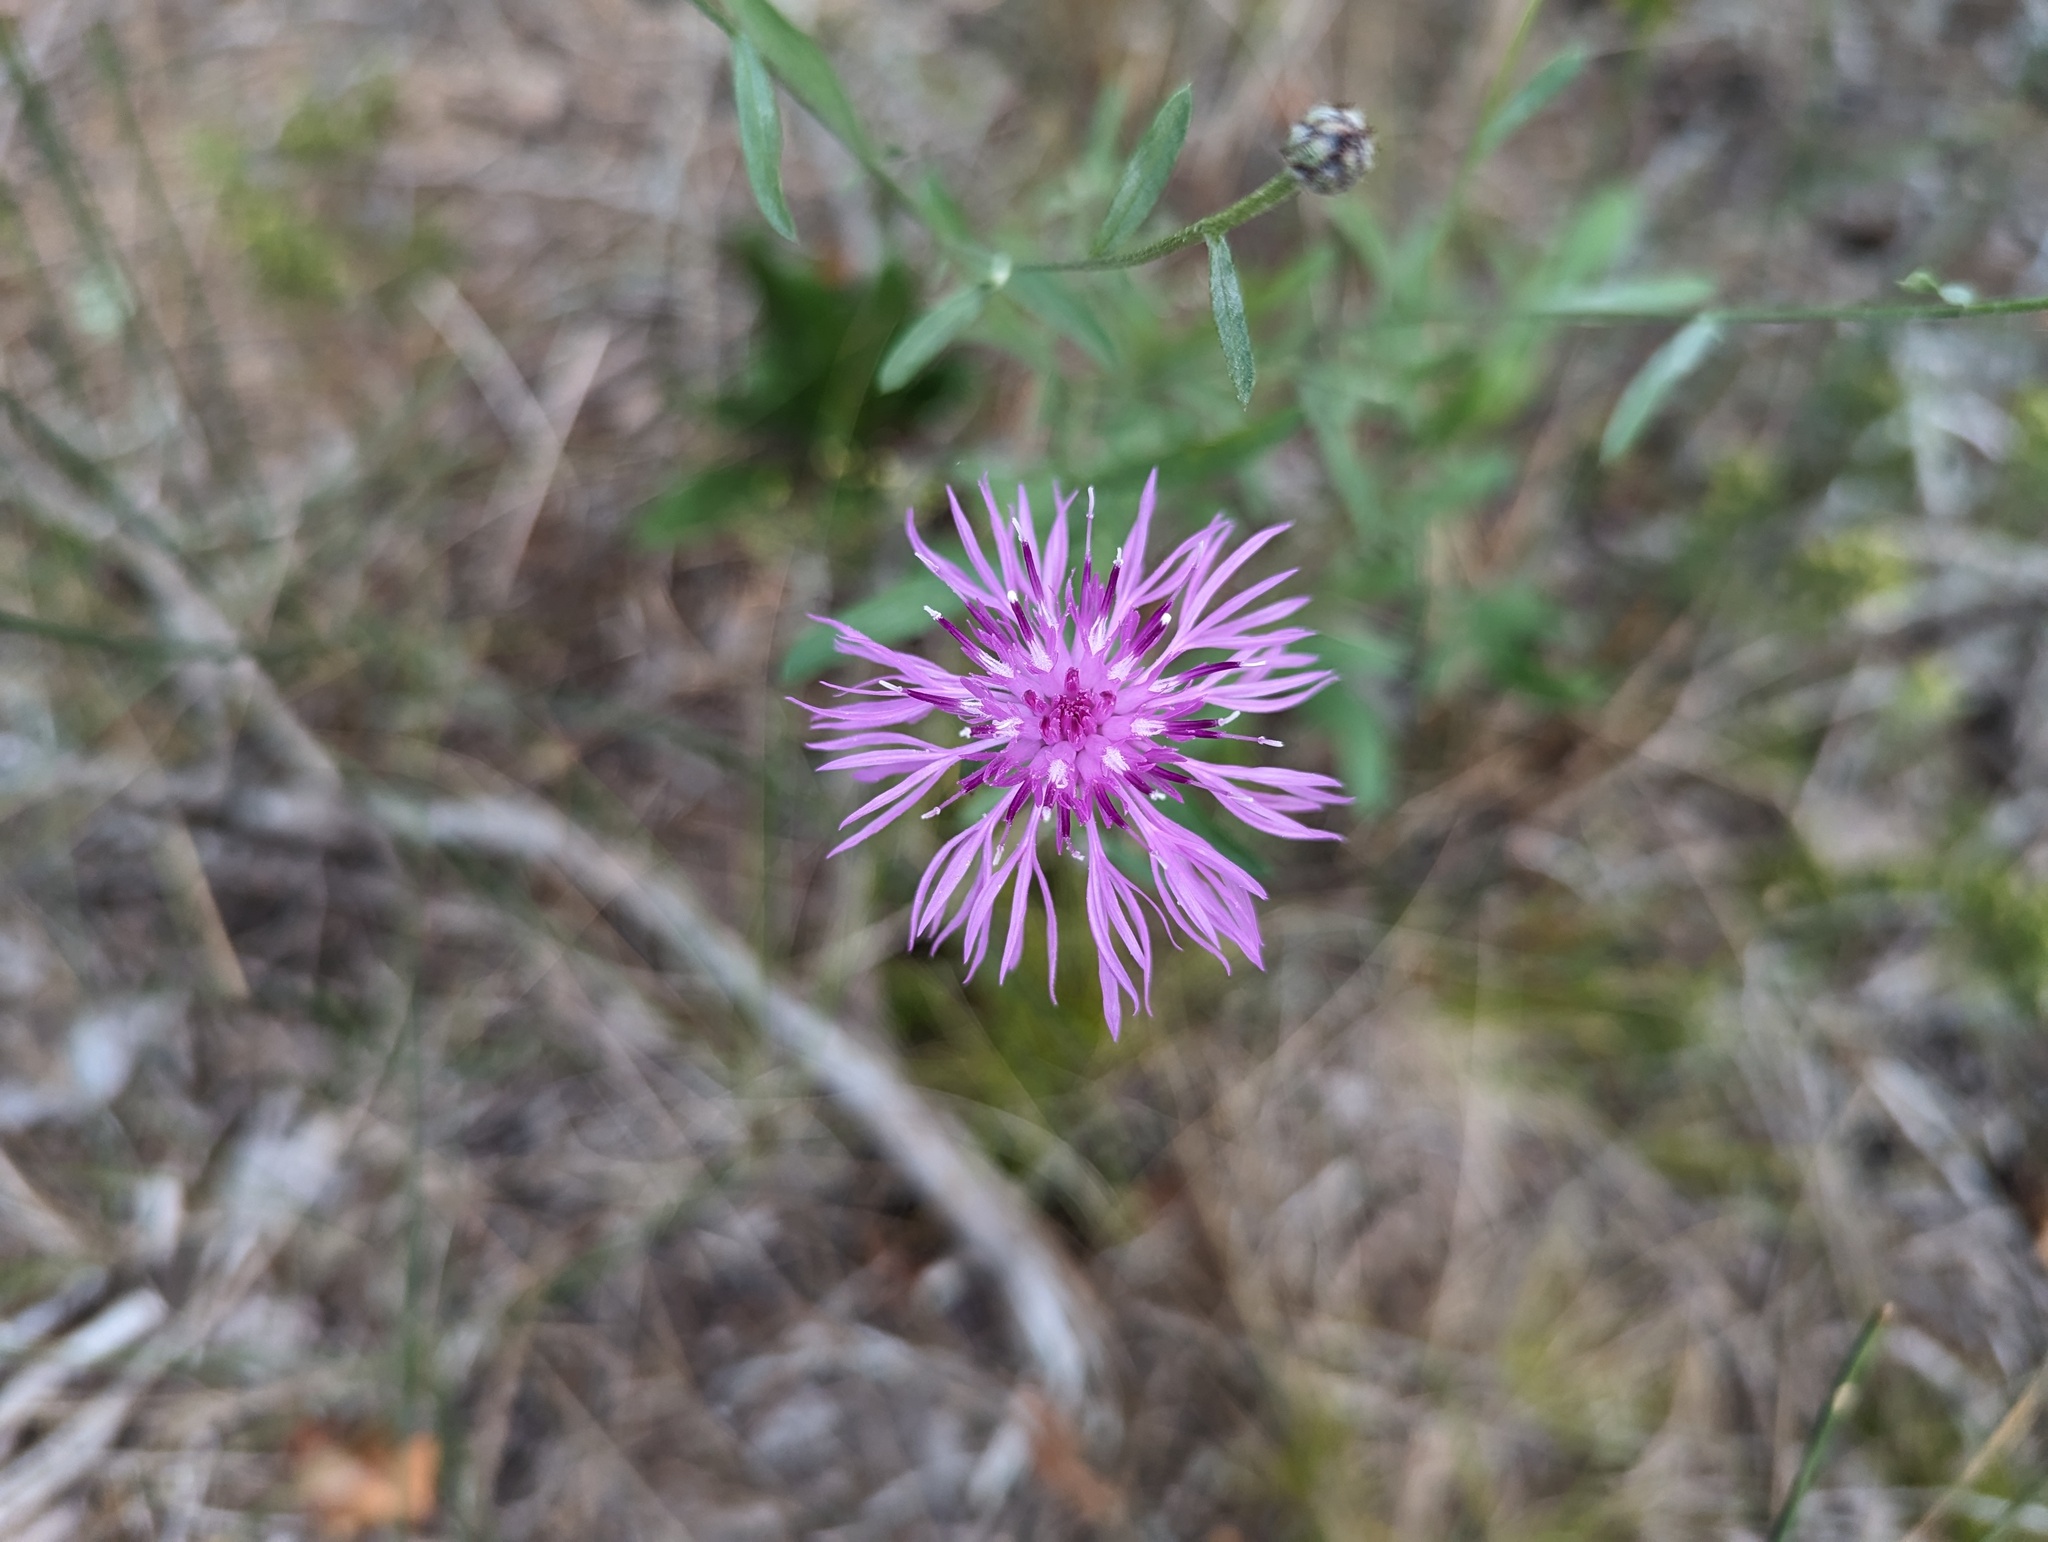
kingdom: Plantae
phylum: Tracheophyta
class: Magnoliopsida
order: Asterales
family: Asteraceae
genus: Centaurea
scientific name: Centaurea stoebe
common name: Spotted knapweed
